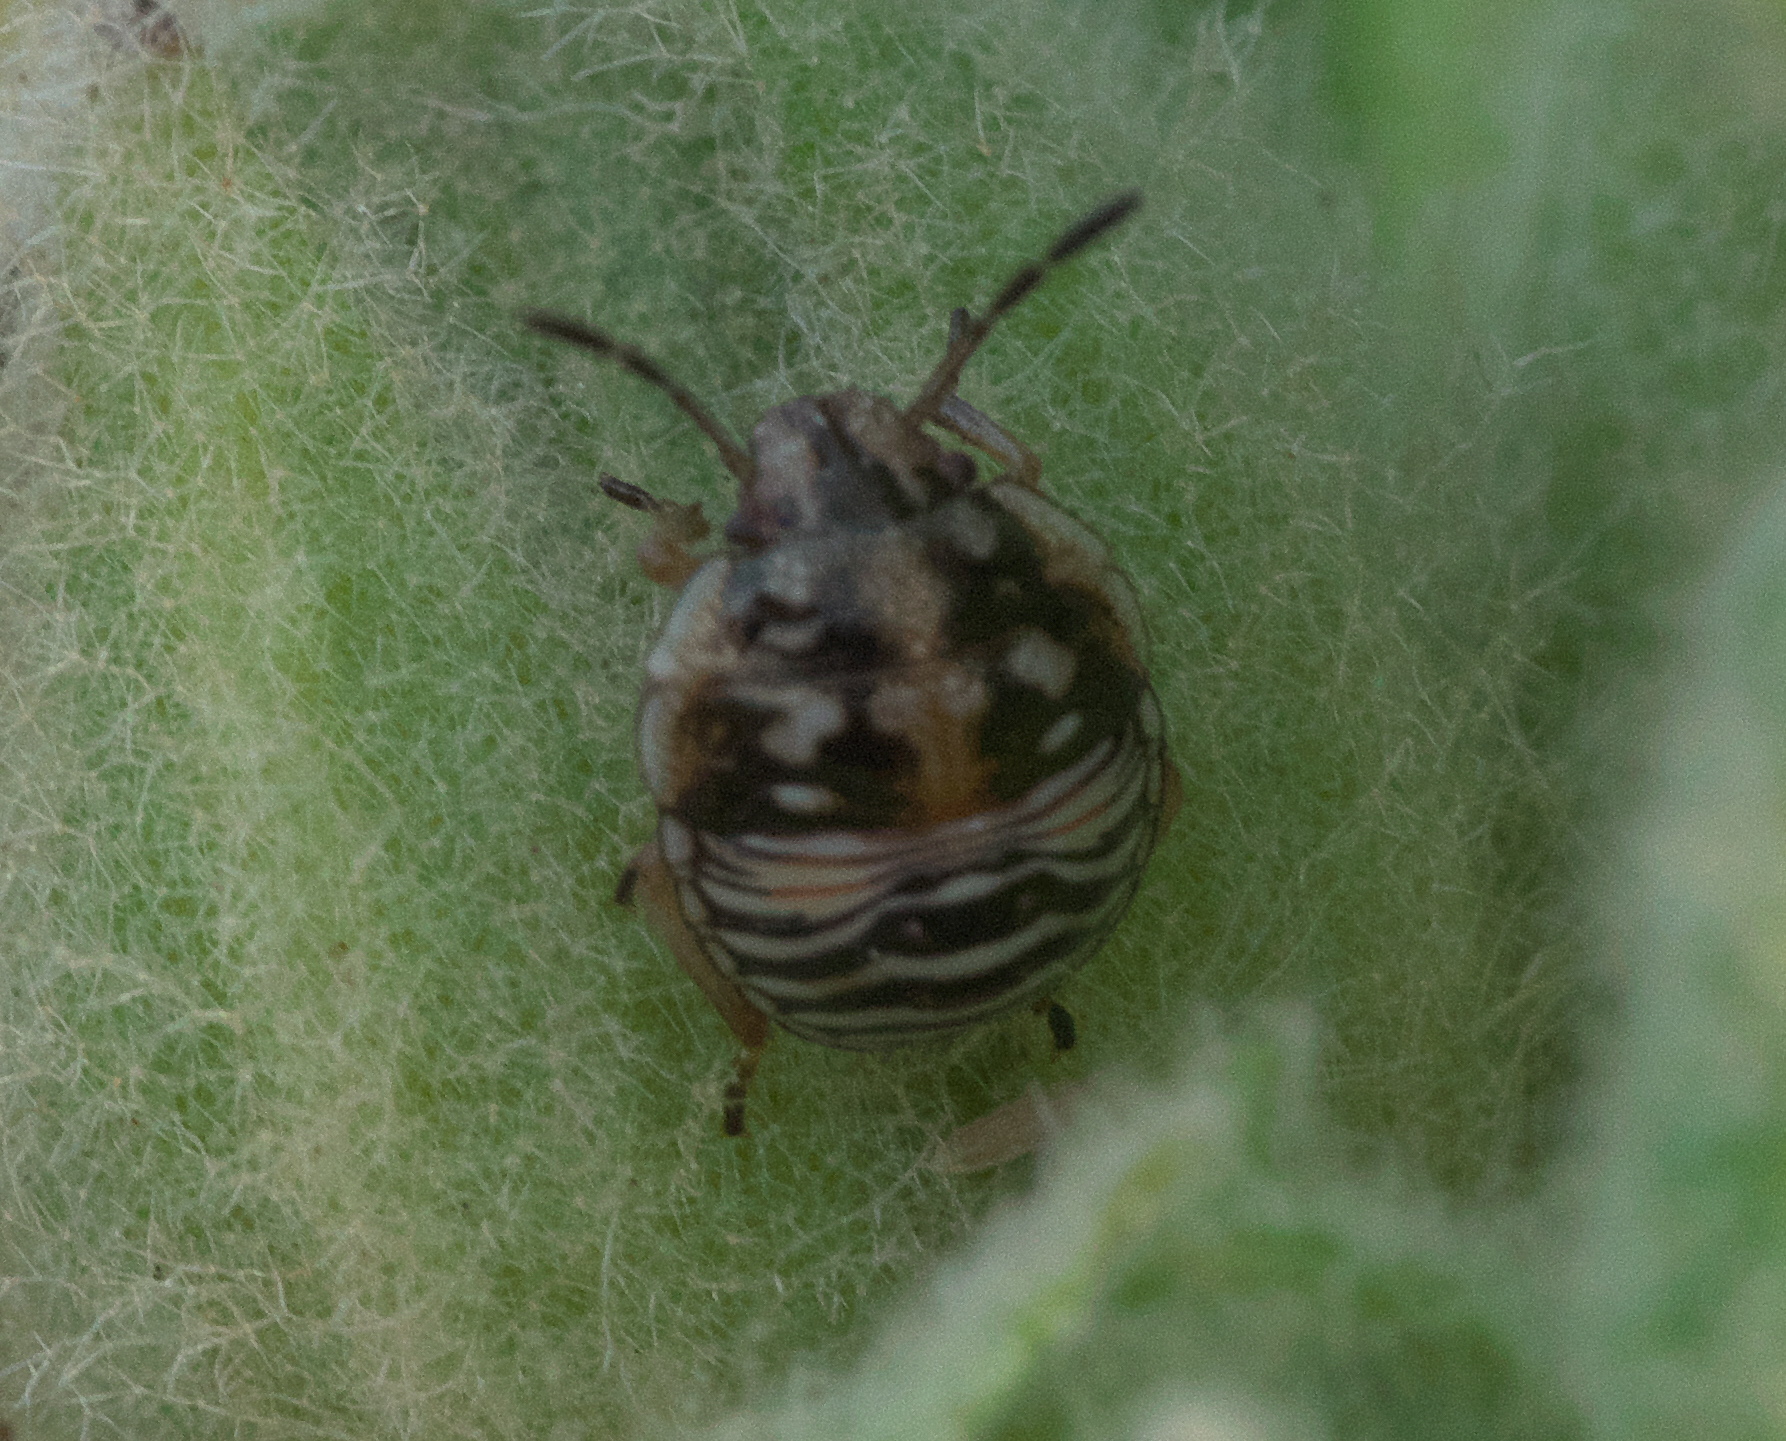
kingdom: Animalia
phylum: Arthropoda
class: Insecta
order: Hemiptera
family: Pentatomidae
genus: Thyanta
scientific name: Thyanta custator
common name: Stink bug
